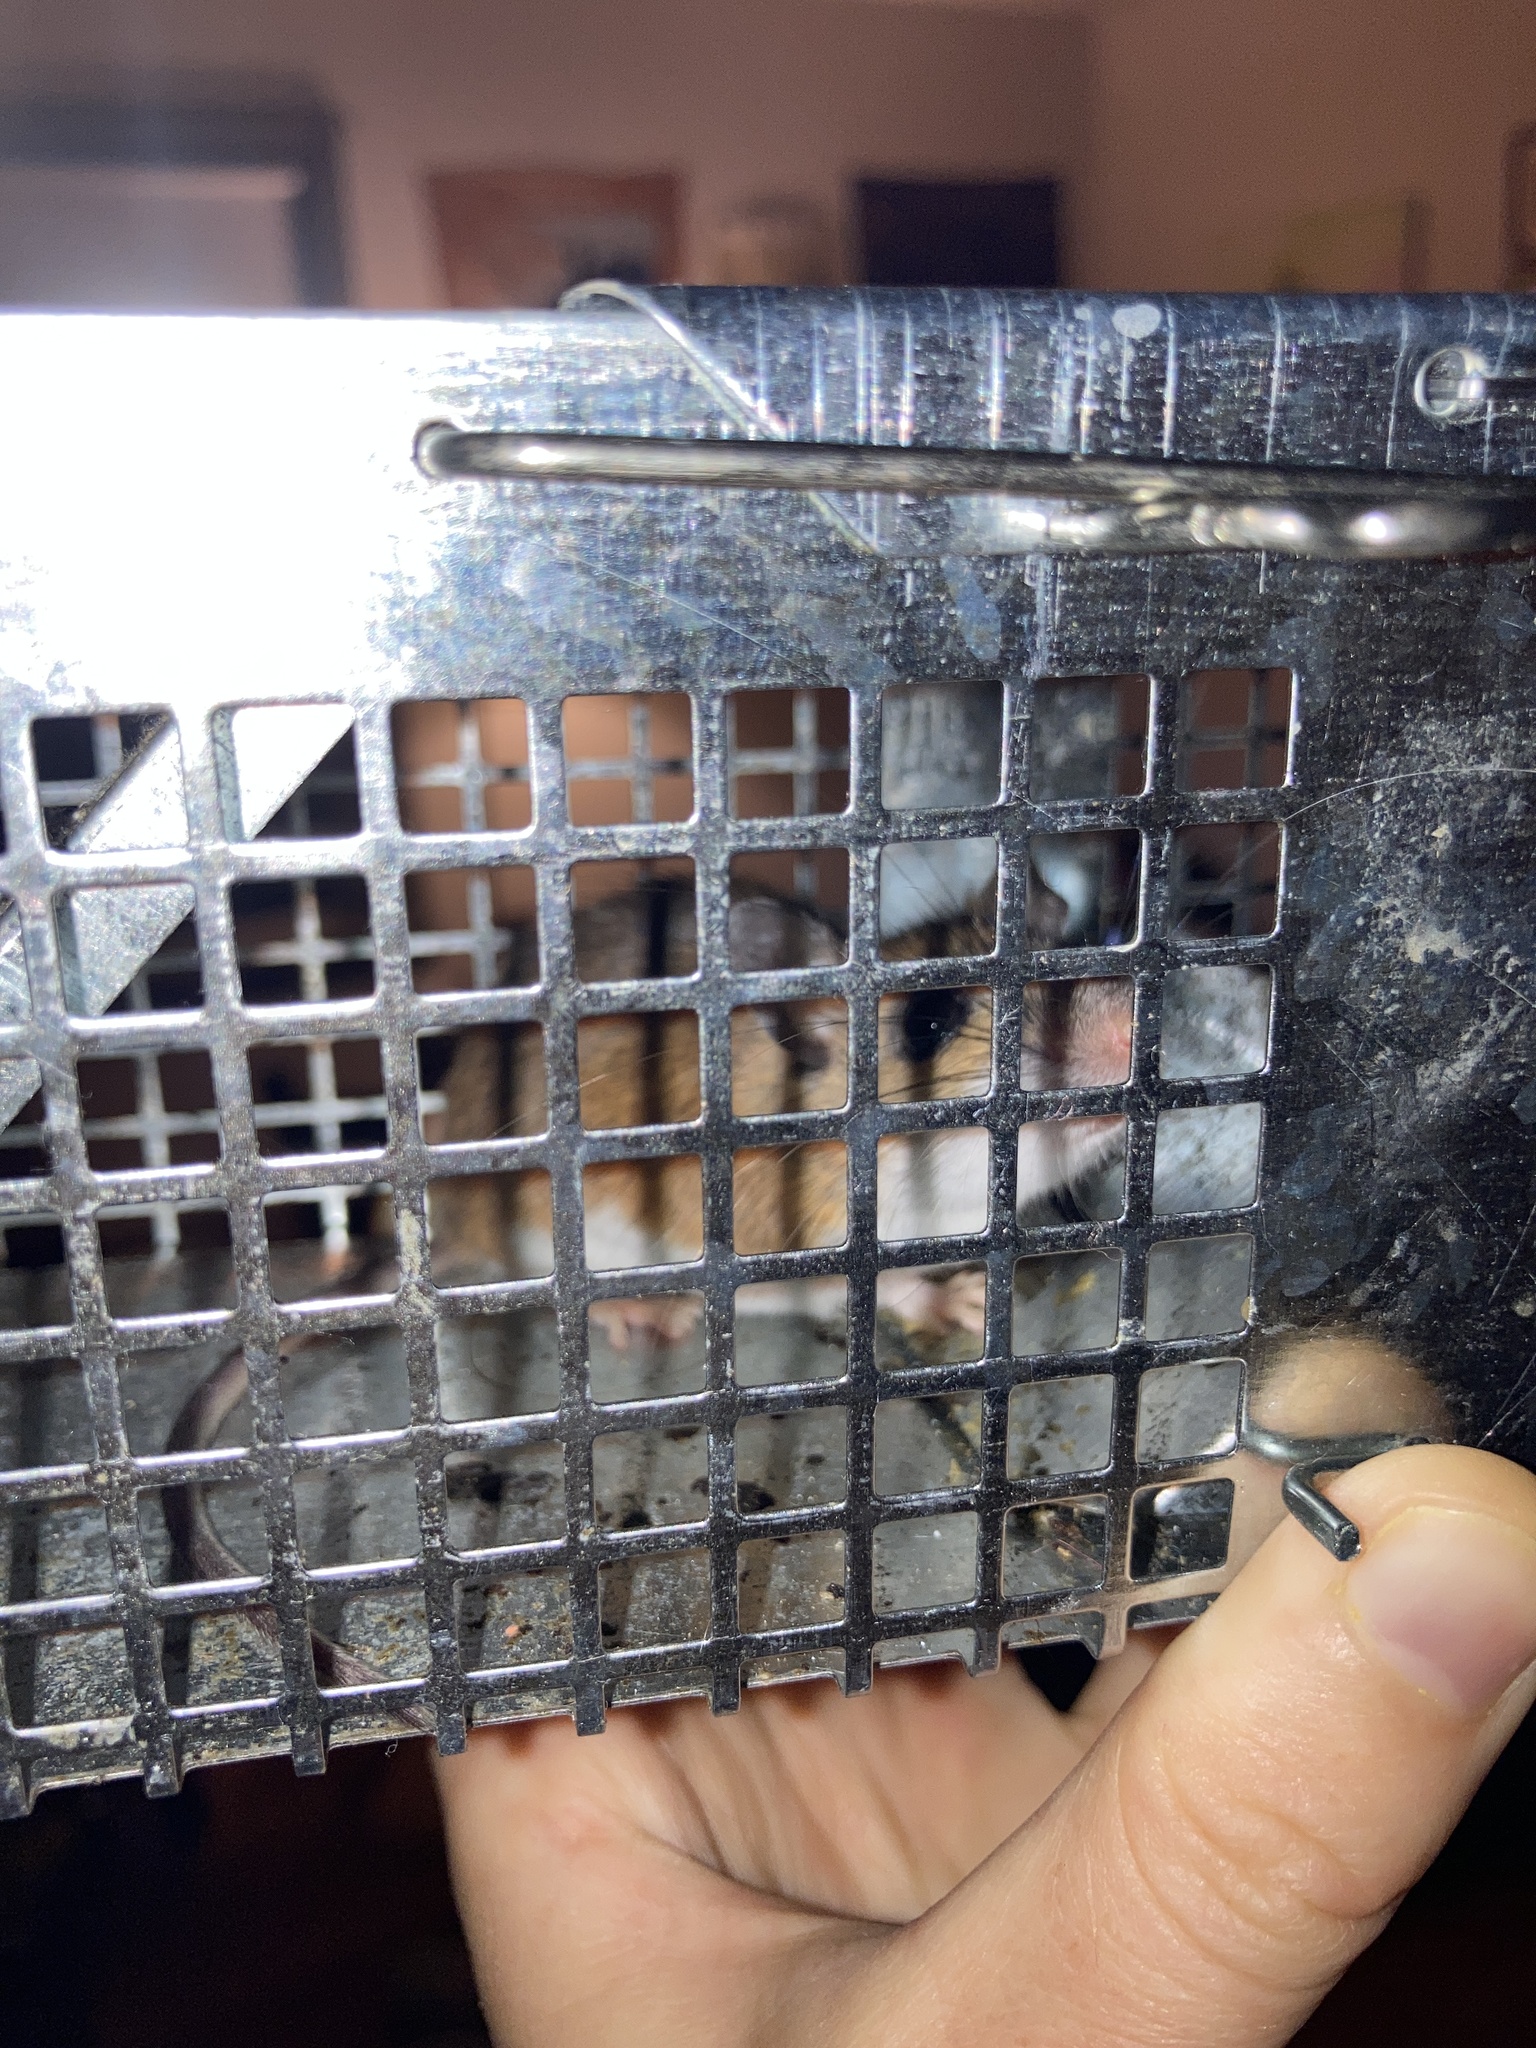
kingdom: Animalia
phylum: Chordata
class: Mammalia
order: Rodentia
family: Cricetidae
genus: Peromyscus
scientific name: Peromyscus
